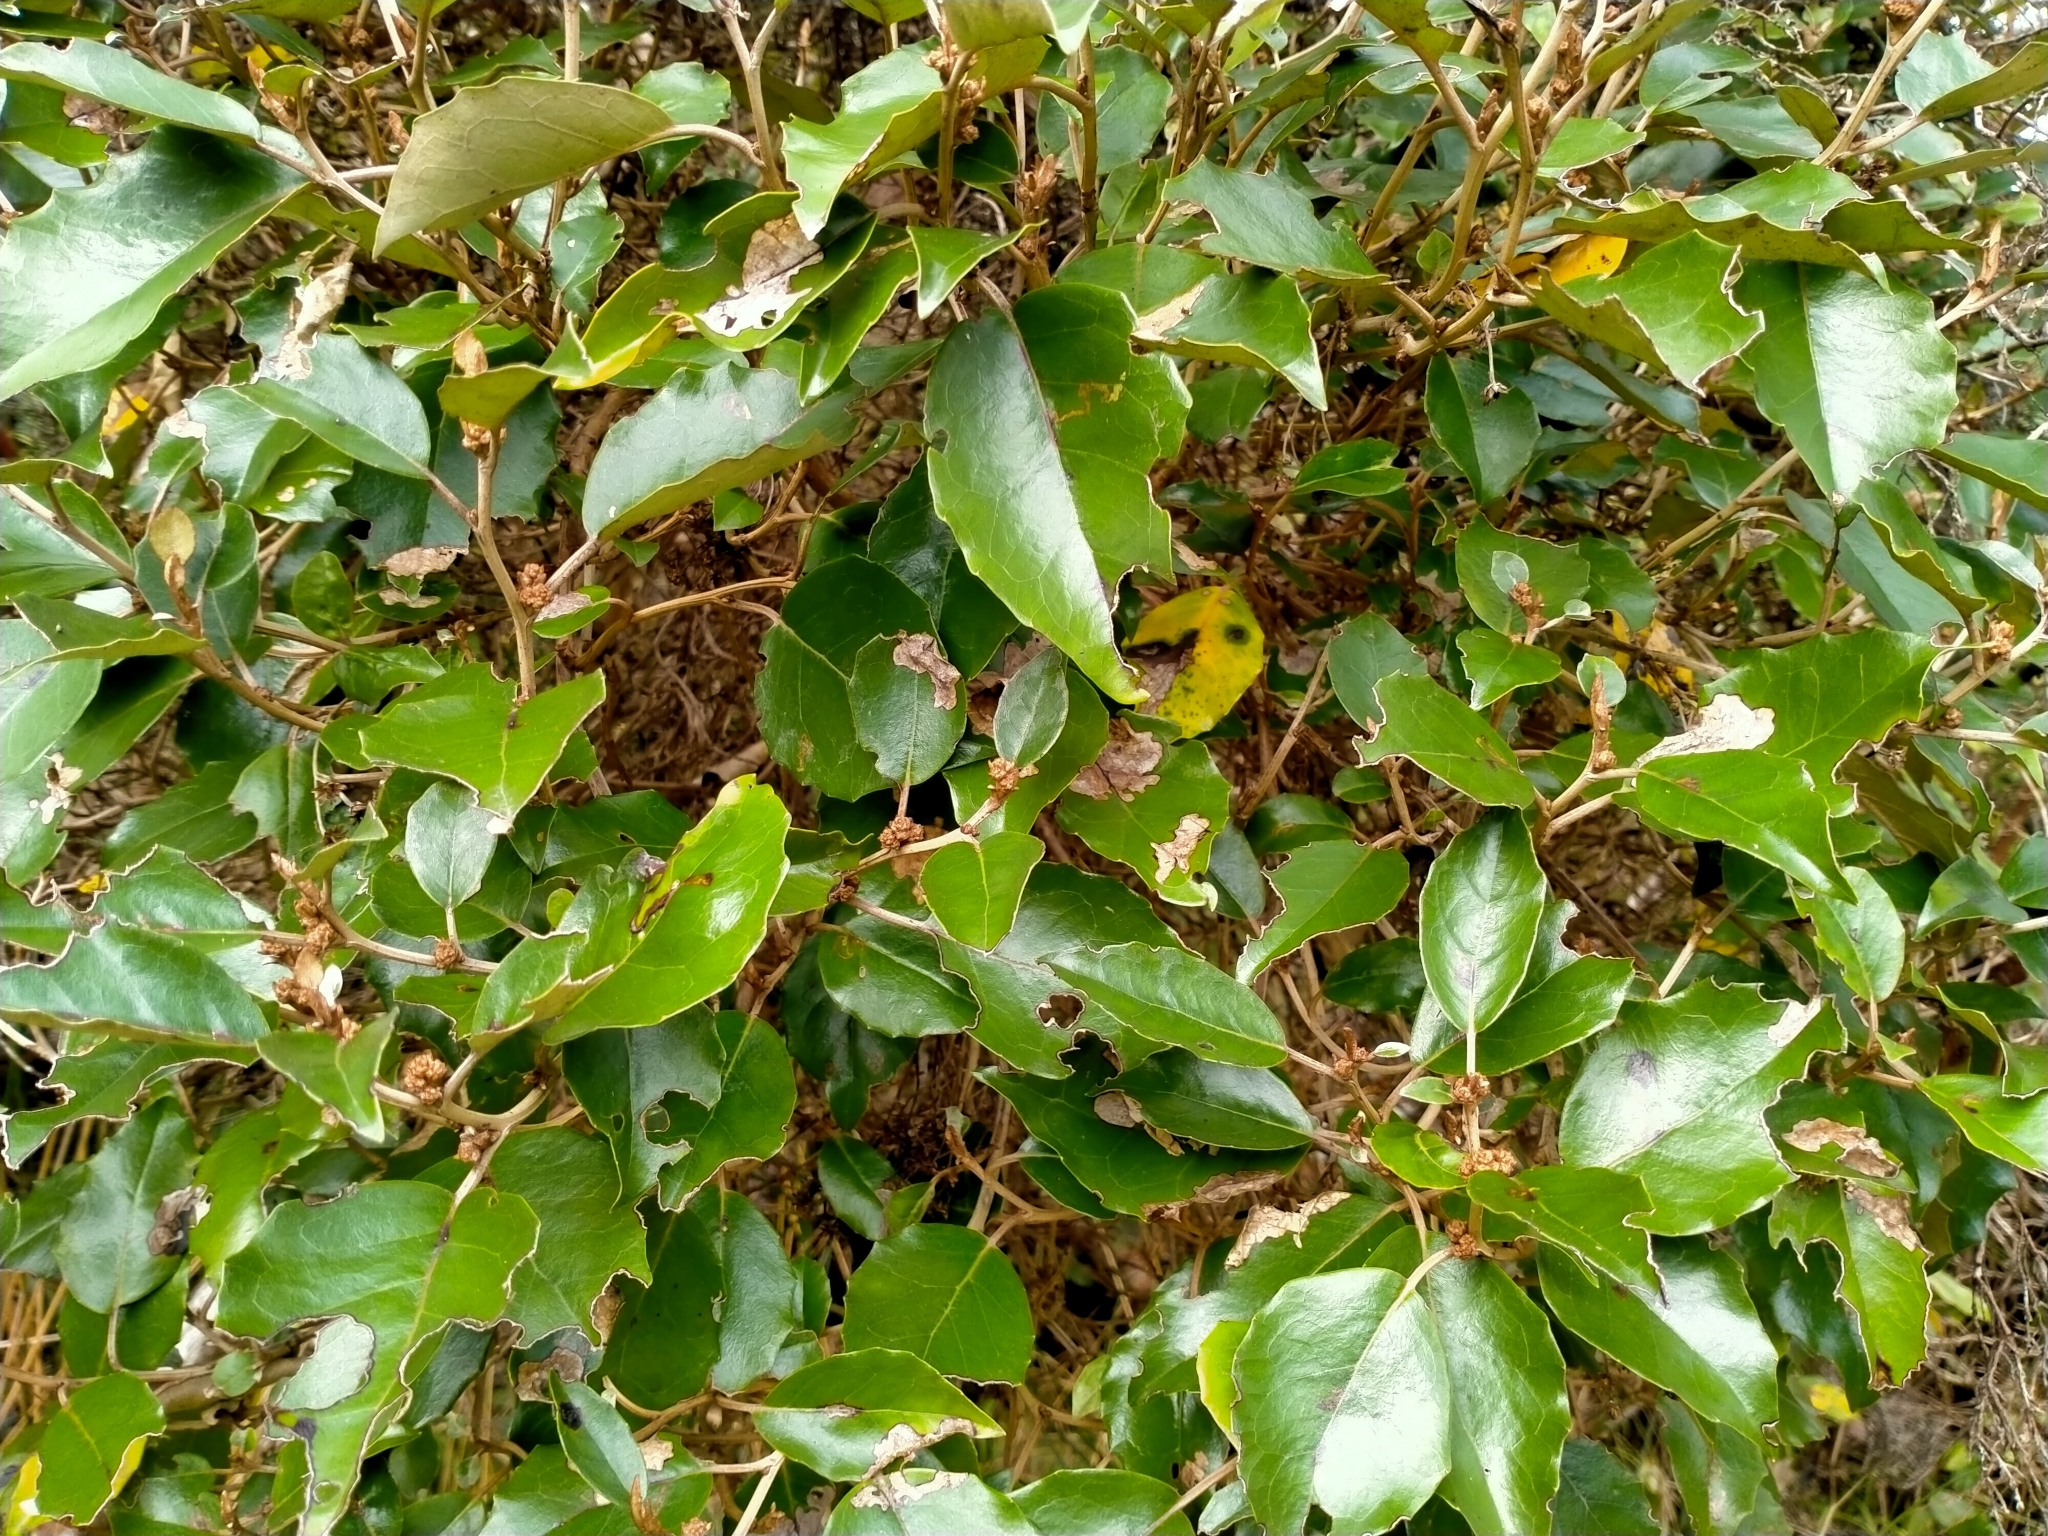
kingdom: Plantae
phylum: Tracheophyta
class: Magnoliopsida
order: Asterales
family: Asteraceae
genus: Olearia
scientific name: Olearia arborescens
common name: Glossy tree daisy
